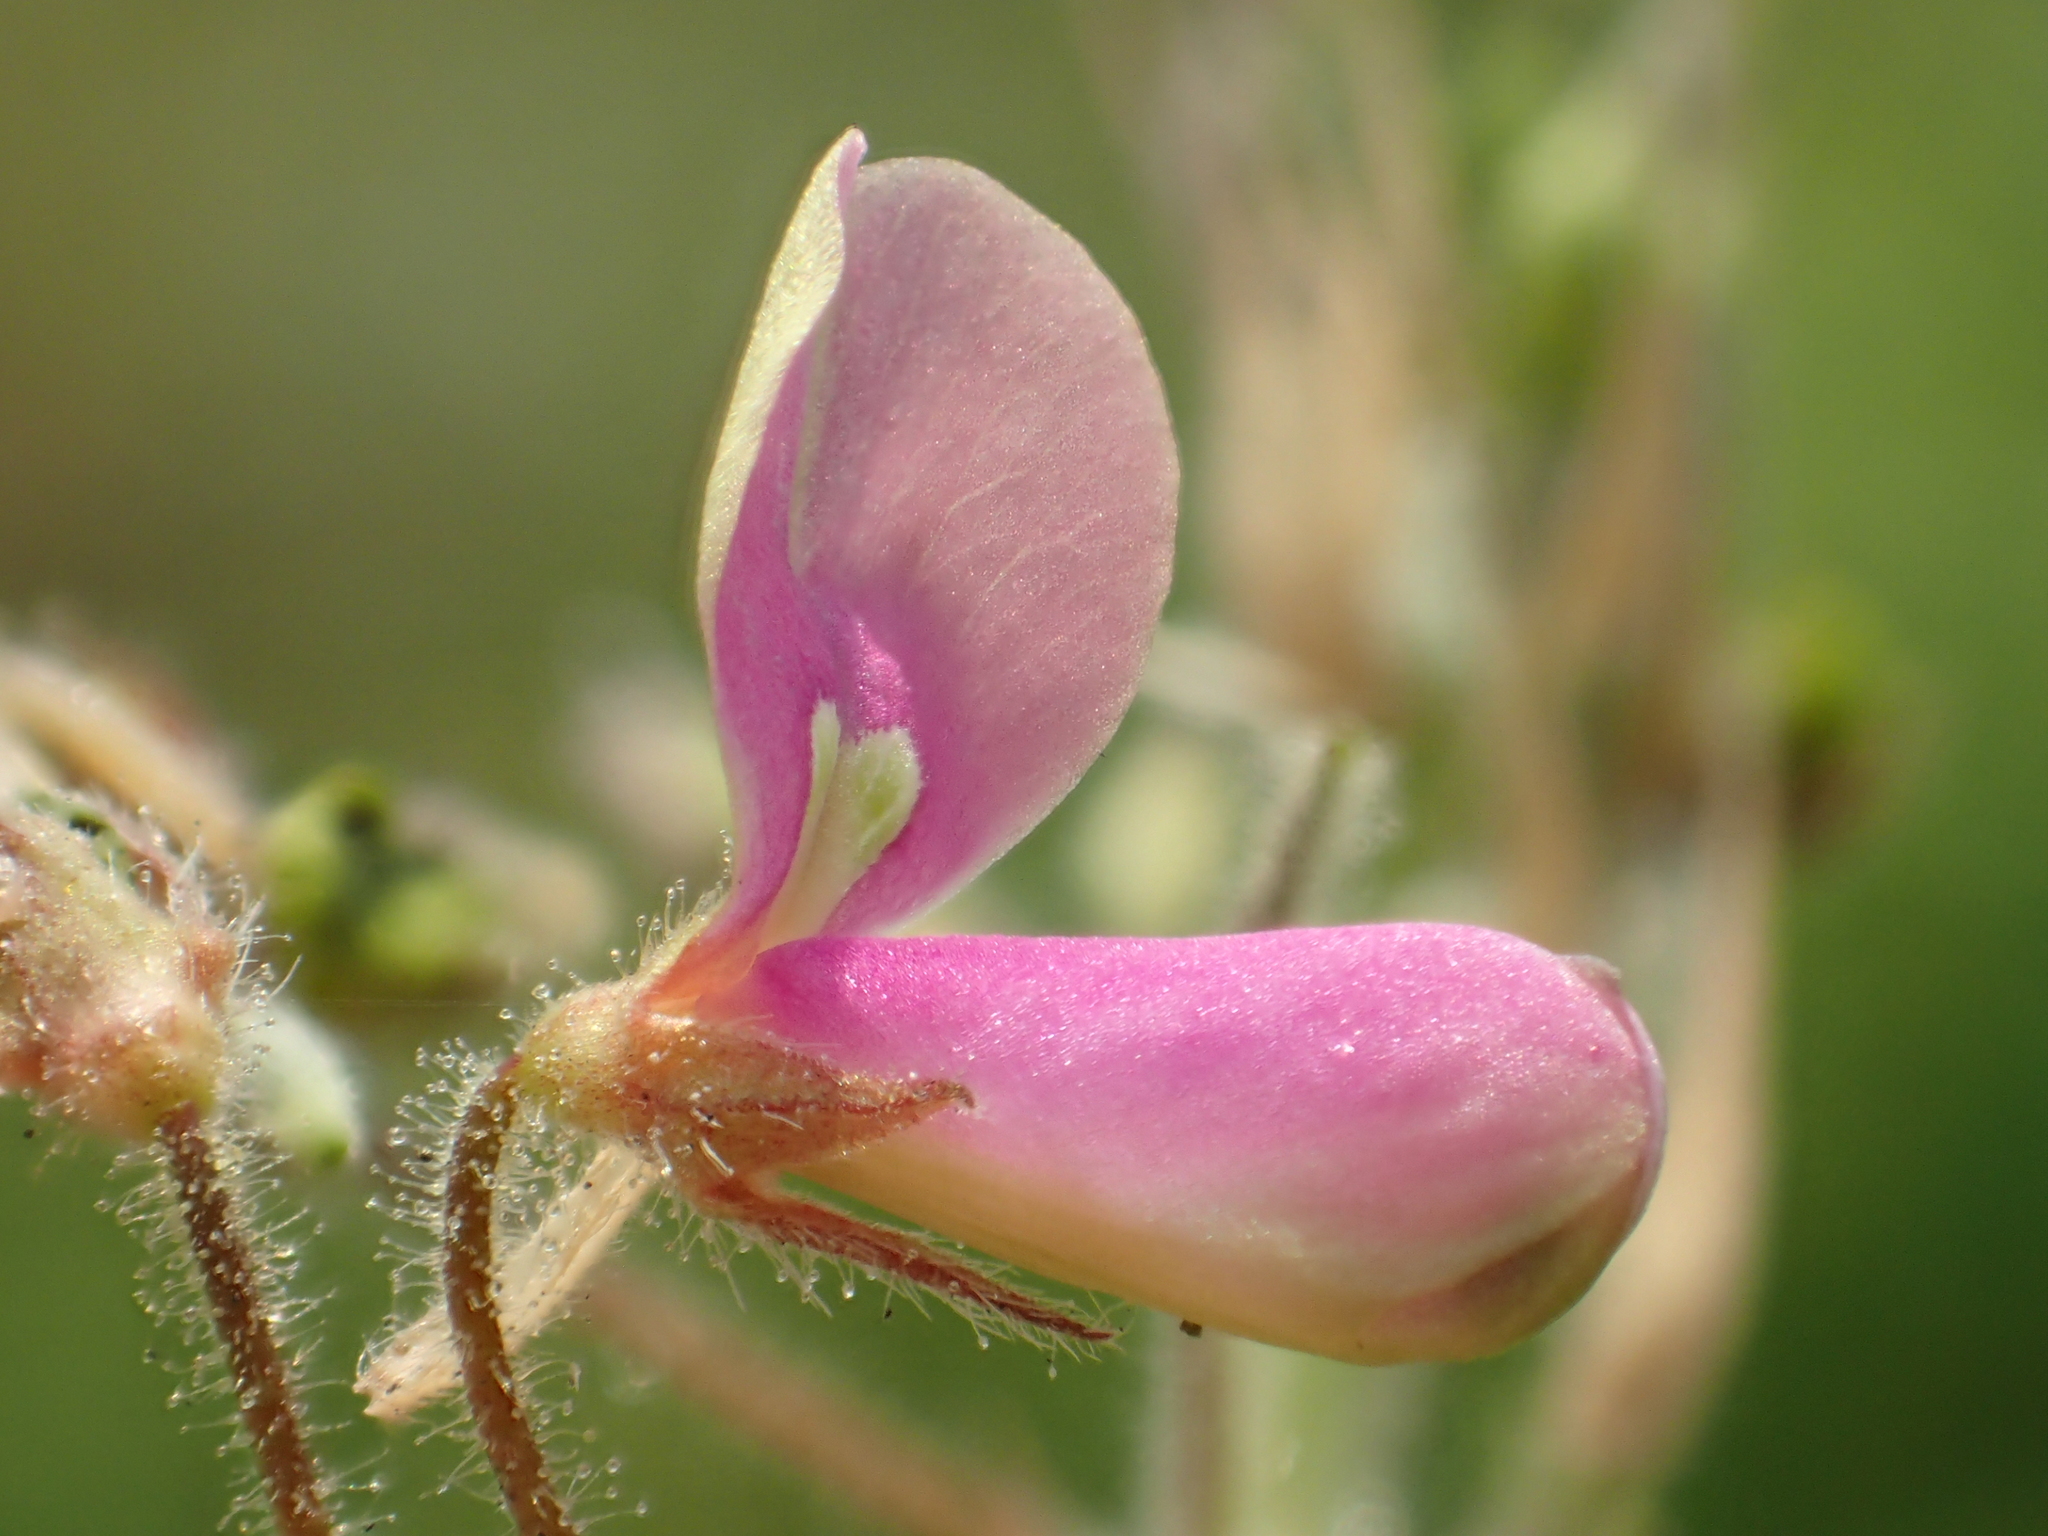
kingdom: Plantae
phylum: Tracheophyta
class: Magnoliopsida
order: Fabales
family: Fabaceae
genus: Desmodium
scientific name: Desmodium tortuosum
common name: Dixie ticktrefoil
